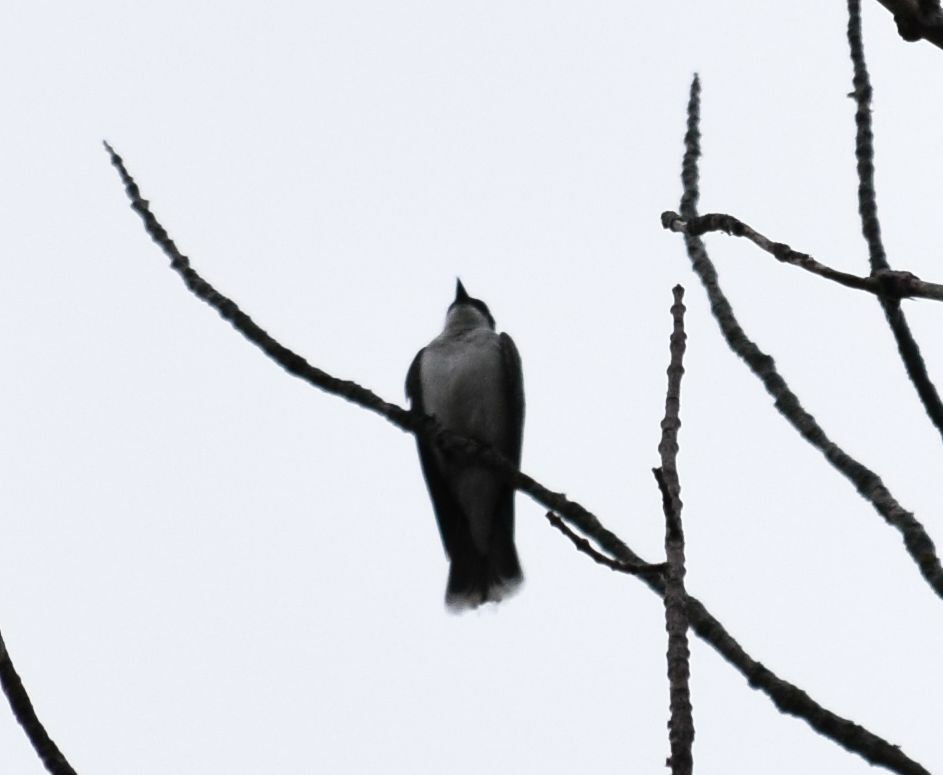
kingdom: Animalia
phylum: Chordata
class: Aves
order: Passeriformes
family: Tyrannidae
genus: Tyrannus
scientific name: Tyrannus tyrannus
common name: Eastern kingbird
